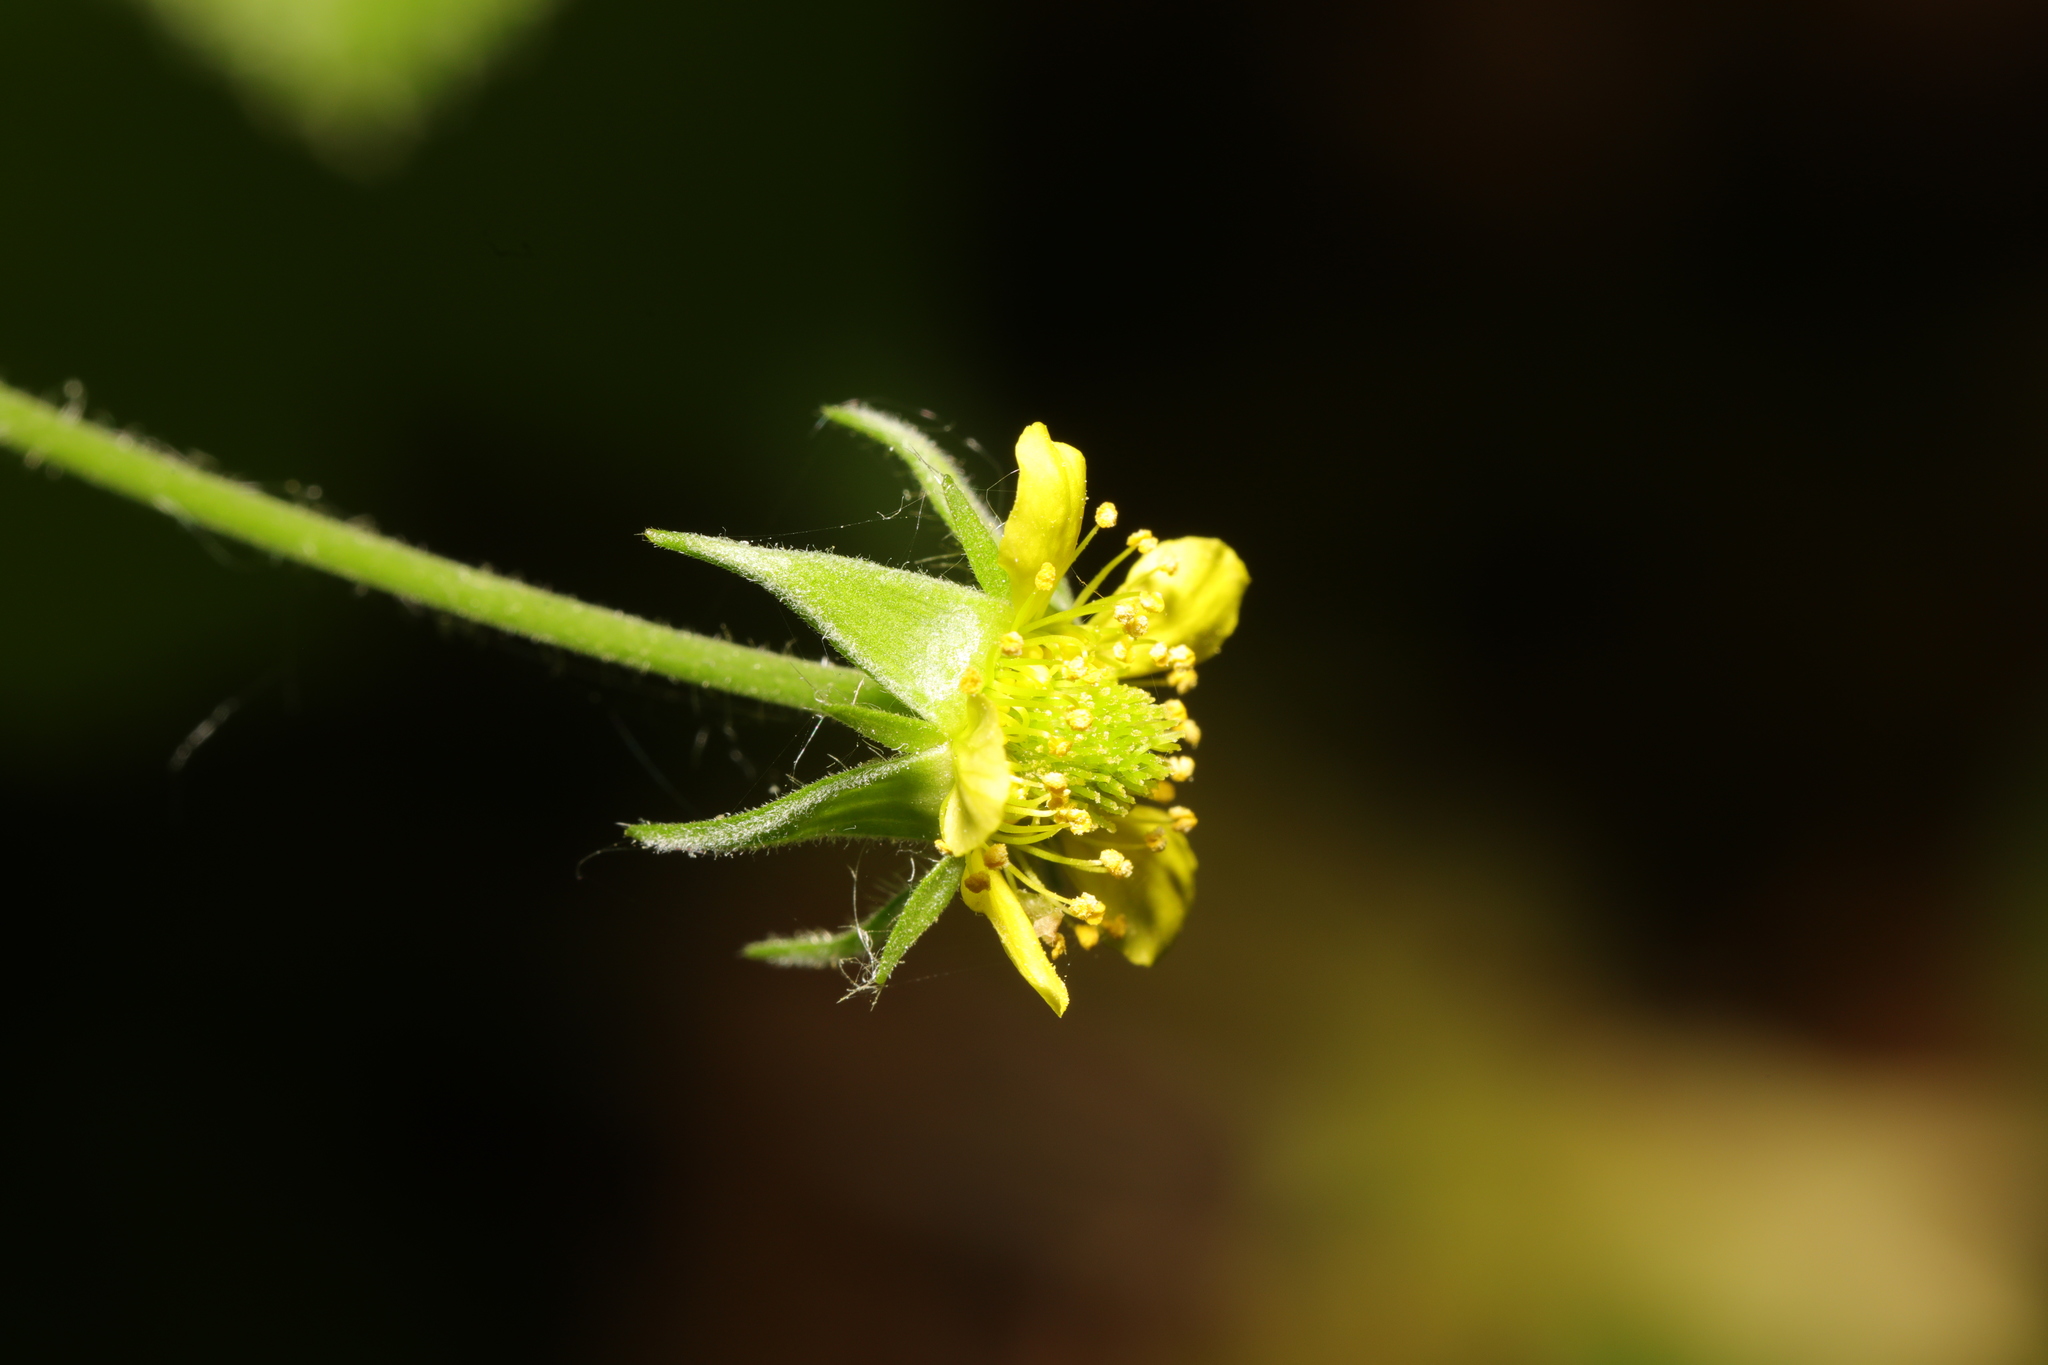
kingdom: Plantae
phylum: Tracheophyta
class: Magnoliopsida
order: Rosales
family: Rosaceae
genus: Geum
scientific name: Geum urbanum
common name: Wood avens
